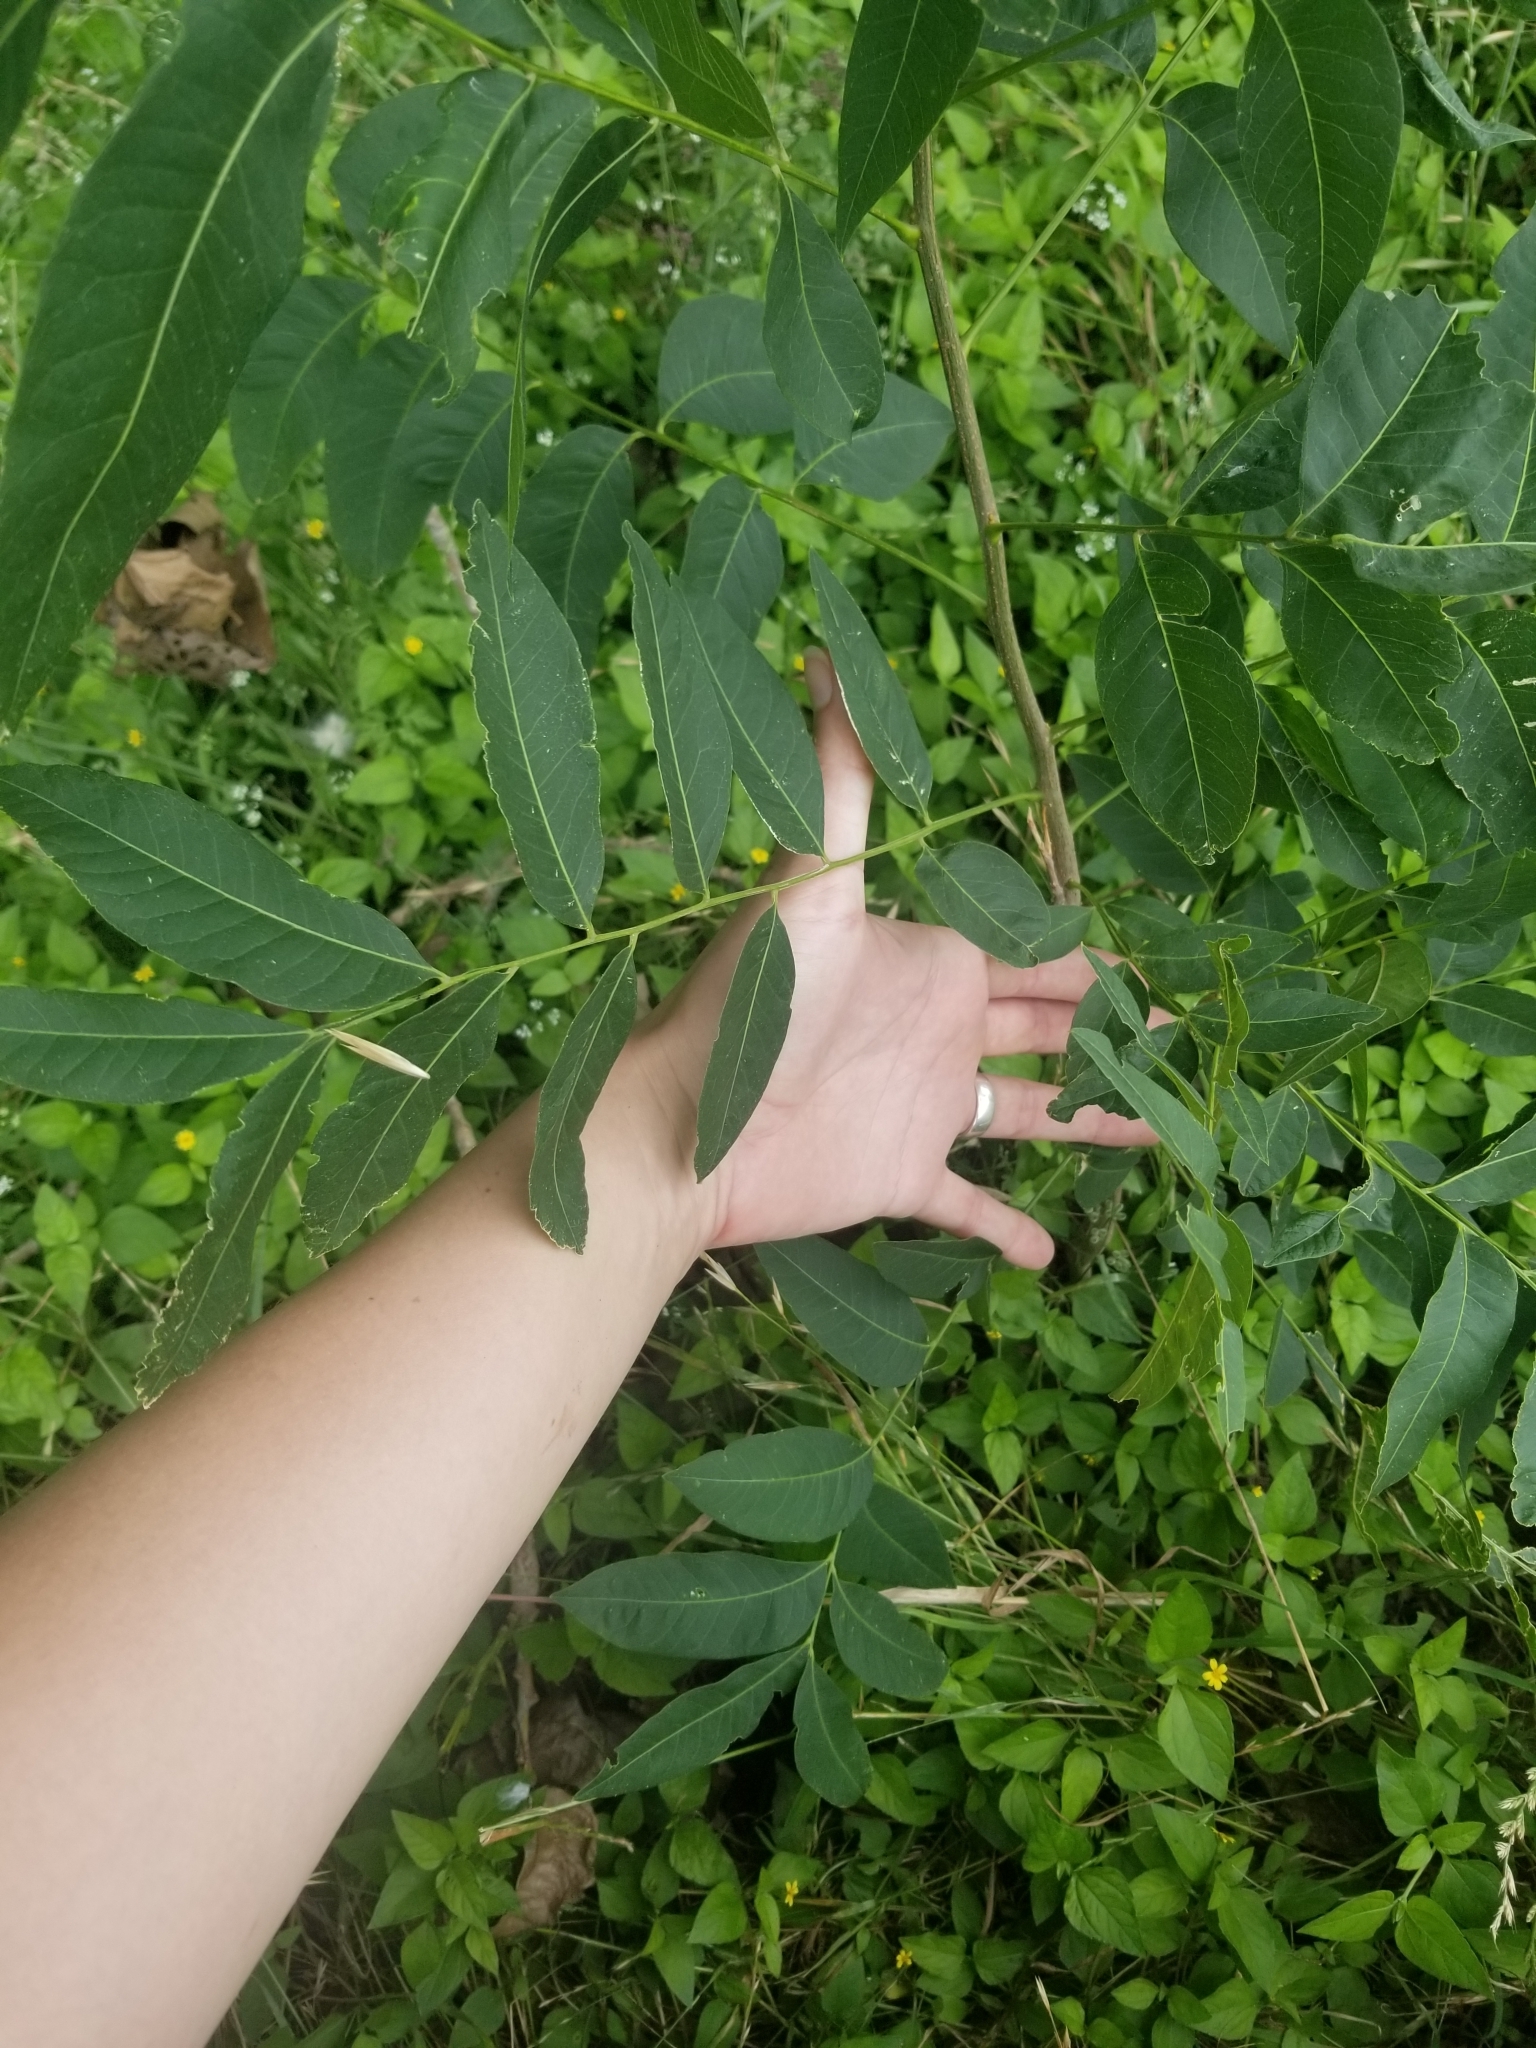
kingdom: Plantae
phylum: Tracheophyta
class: Magnoliopsida
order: Sapindales
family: Sapindaceae
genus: Sapindus
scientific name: Sapindus drummondii
